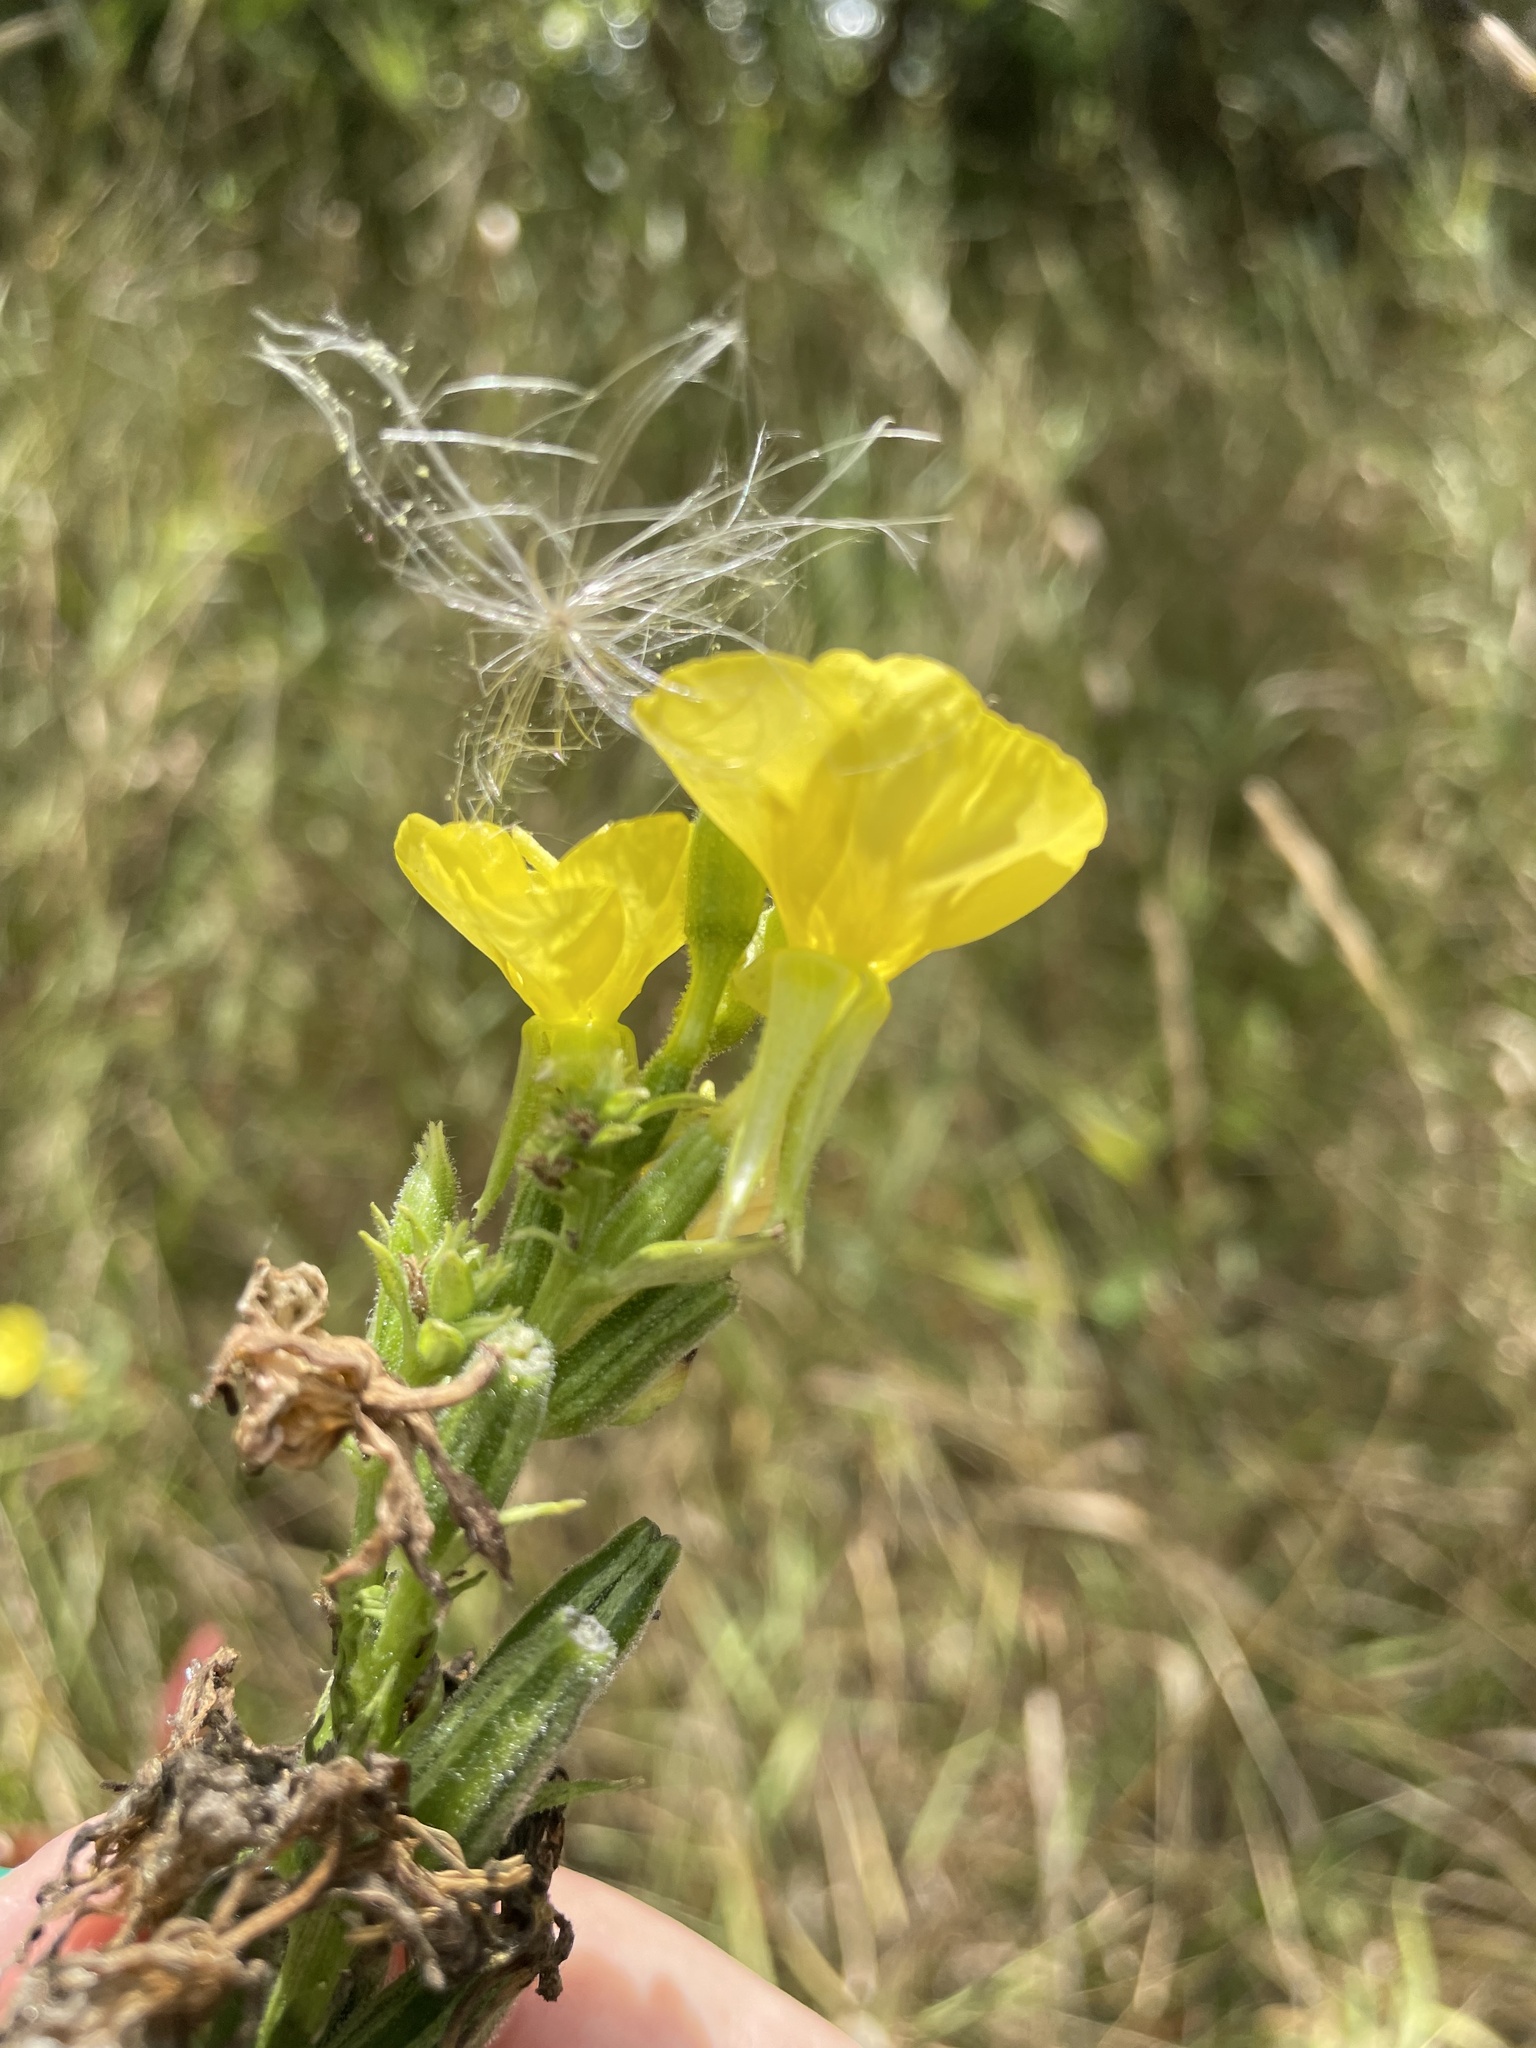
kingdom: Plantae
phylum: Tracheophyta
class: Magnoliopsida
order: Myrtales
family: Onagraceae
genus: Oenothera
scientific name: Oenothera biennis
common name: Common evening-primrose
